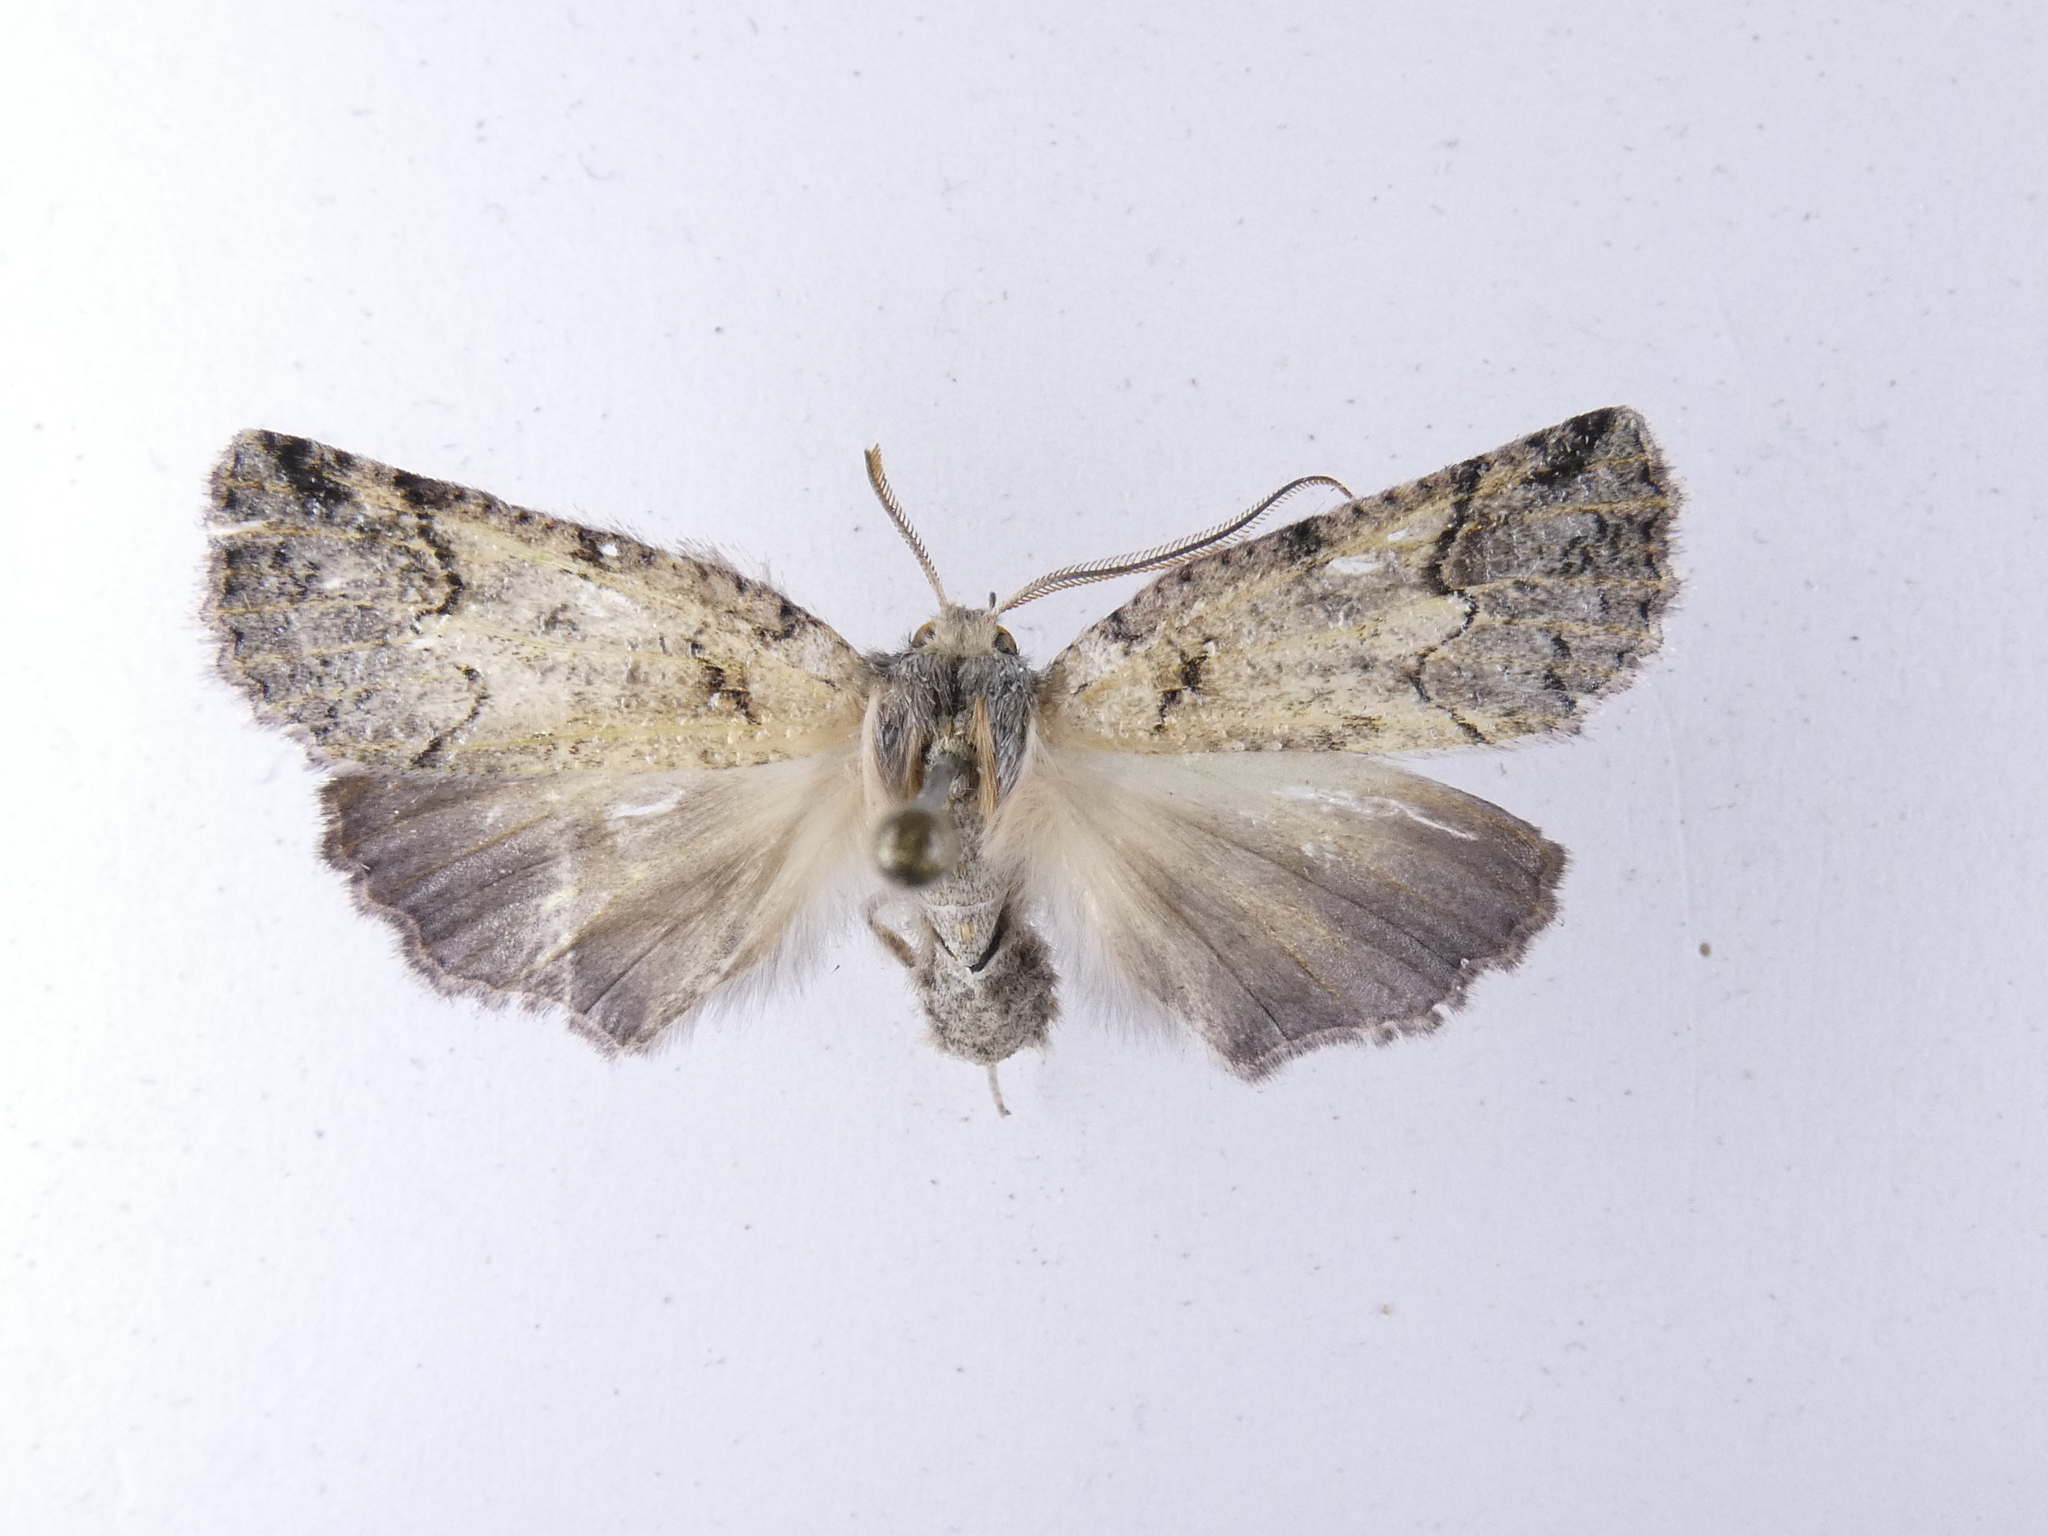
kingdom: Animalia
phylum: Arthropoda
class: Insecta
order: Lepidoptera
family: Geometridae
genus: Declana
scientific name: Declana floccosa
